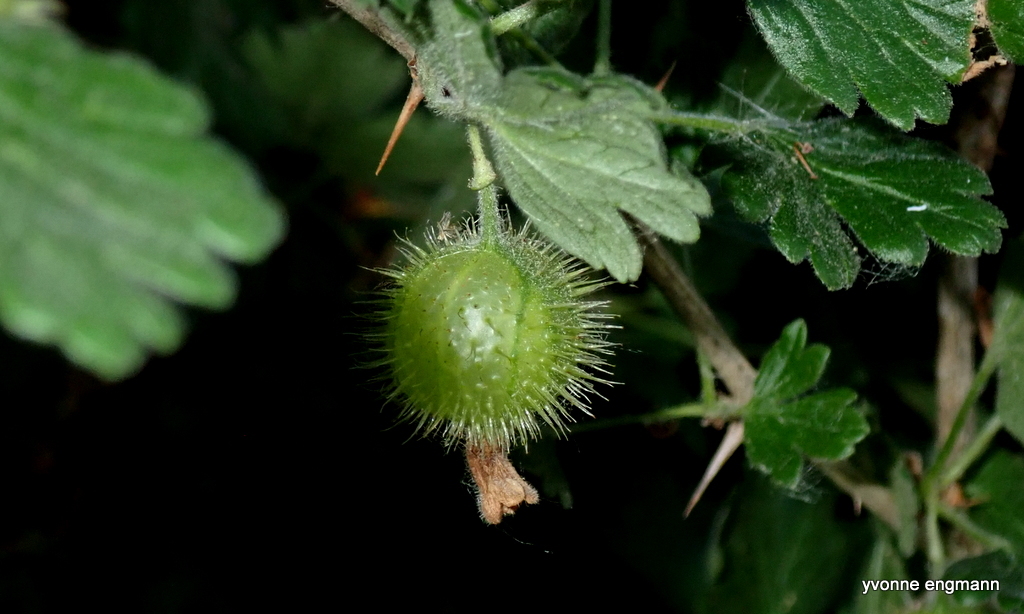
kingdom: Plantae
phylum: Tracheophyta
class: Magnoliopsida
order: Saxifragales
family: Grossulariaceae
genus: Ribes
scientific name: Ribes uva-crispa
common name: Gooseberry
